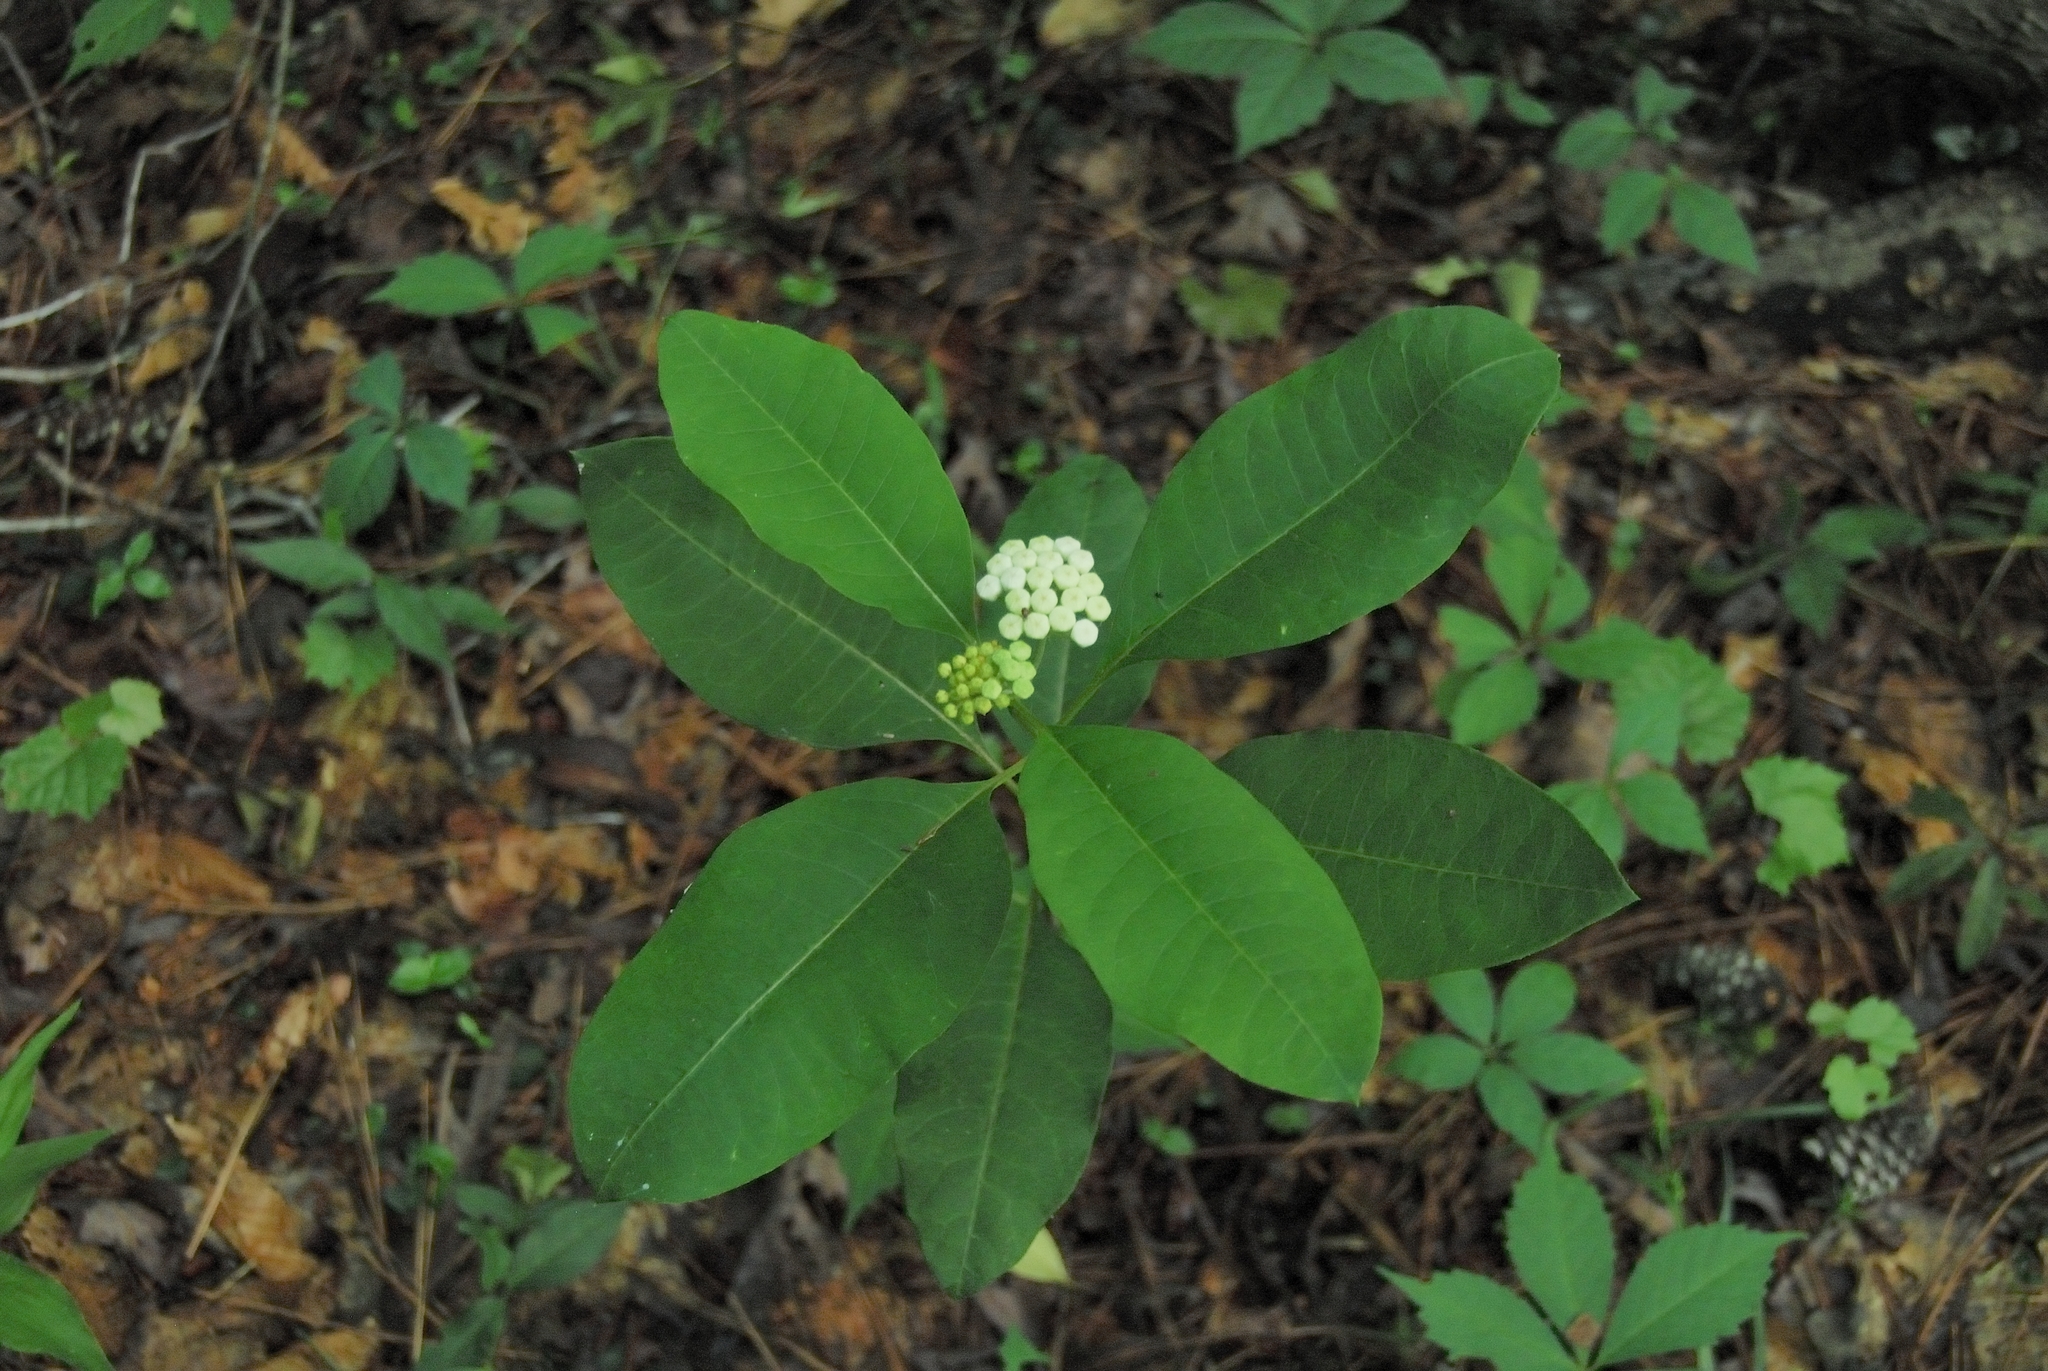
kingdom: Plantae
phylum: Tracheophyta
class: Magnoliopsida
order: Gentianales
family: Apocynaceae
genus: Asclepias
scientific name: Asclepias variegata
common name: Variegated milkweed
